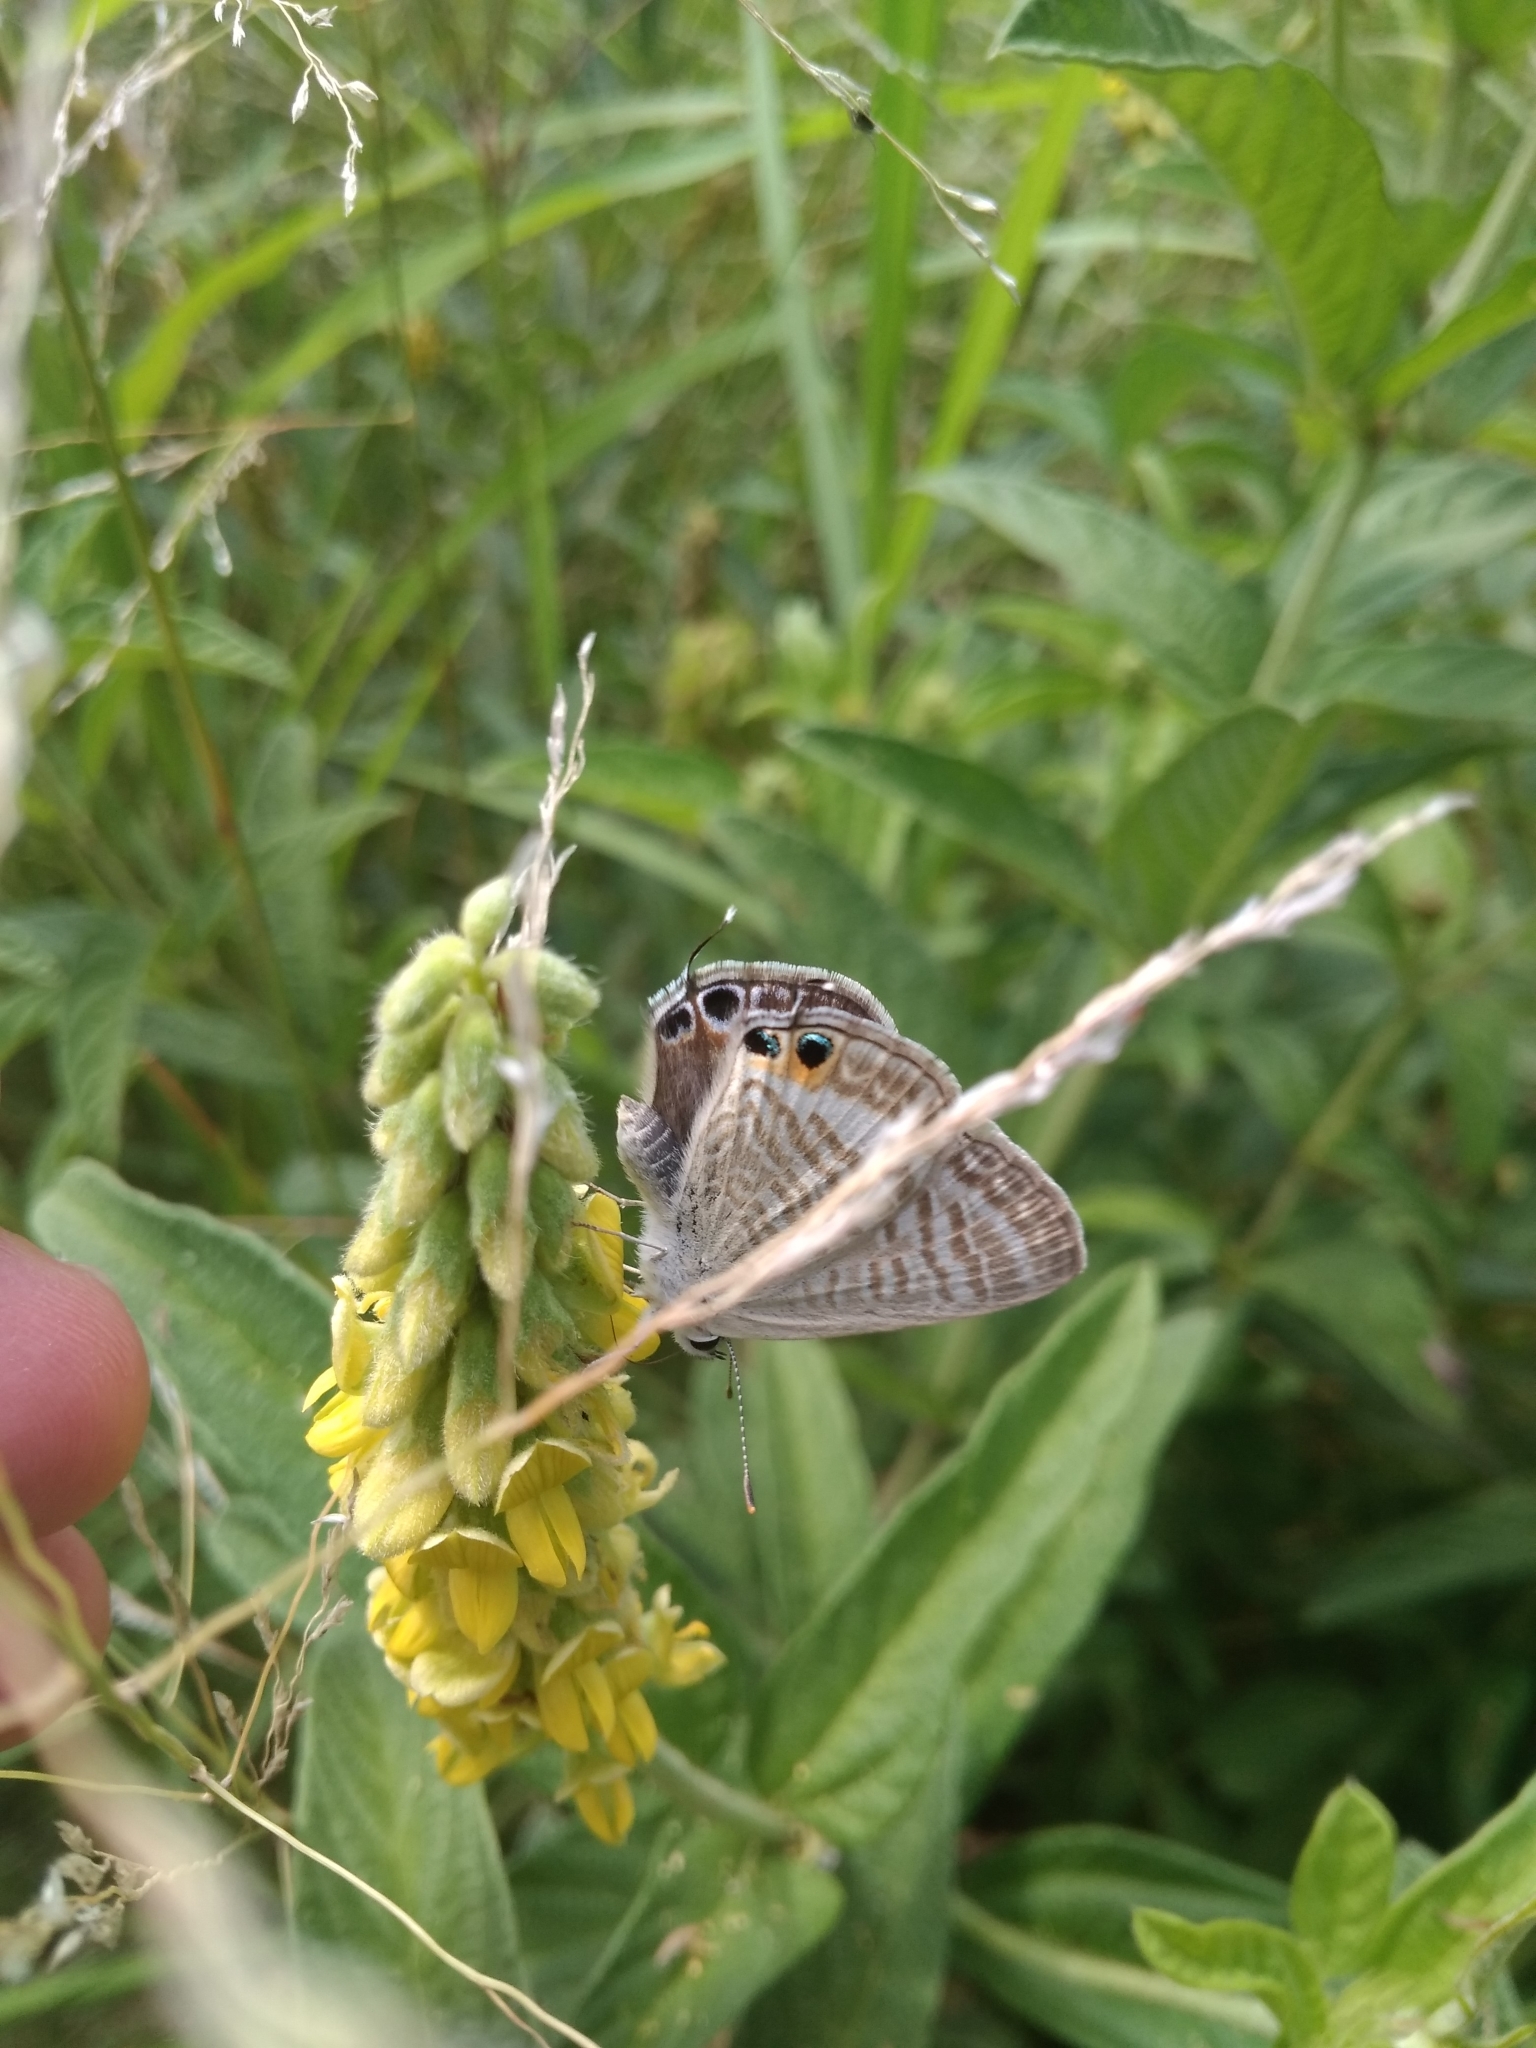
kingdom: Animalia
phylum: Arthropoda
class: Insecta
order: Lepidoptera
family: Lycaenidae
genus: Lampides
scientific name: Lampides boeticus
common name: Long-tailed blue
